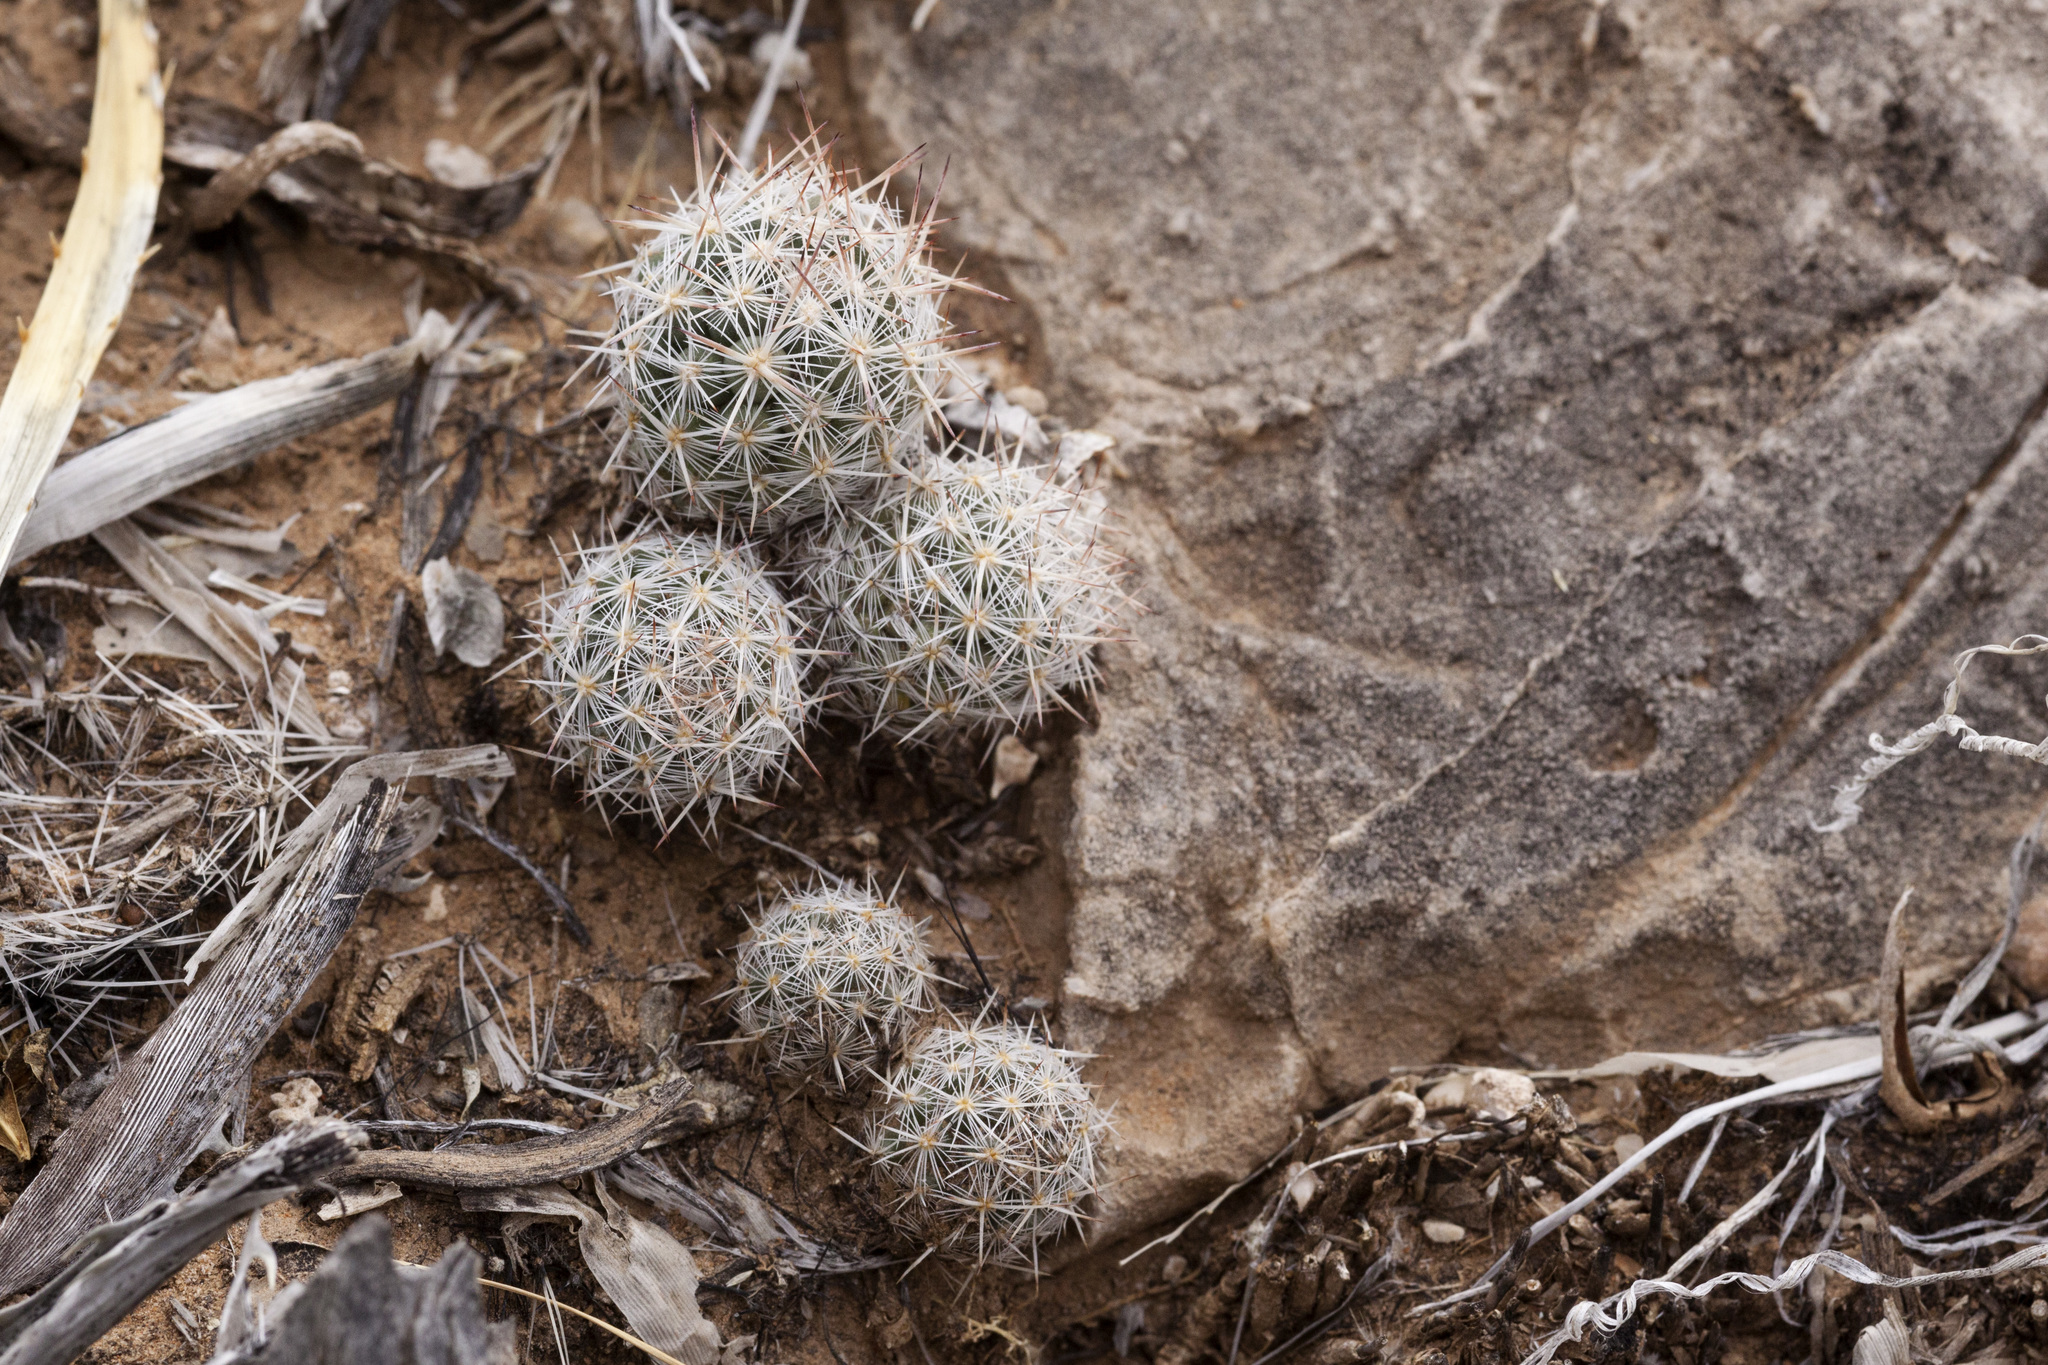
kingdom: Plantae
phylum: Tracheophyta
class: Magnoliopsida
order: Caryophyllales
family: Cactaceae
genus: Pelecyphora
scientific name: Pelecyphora sneedii
